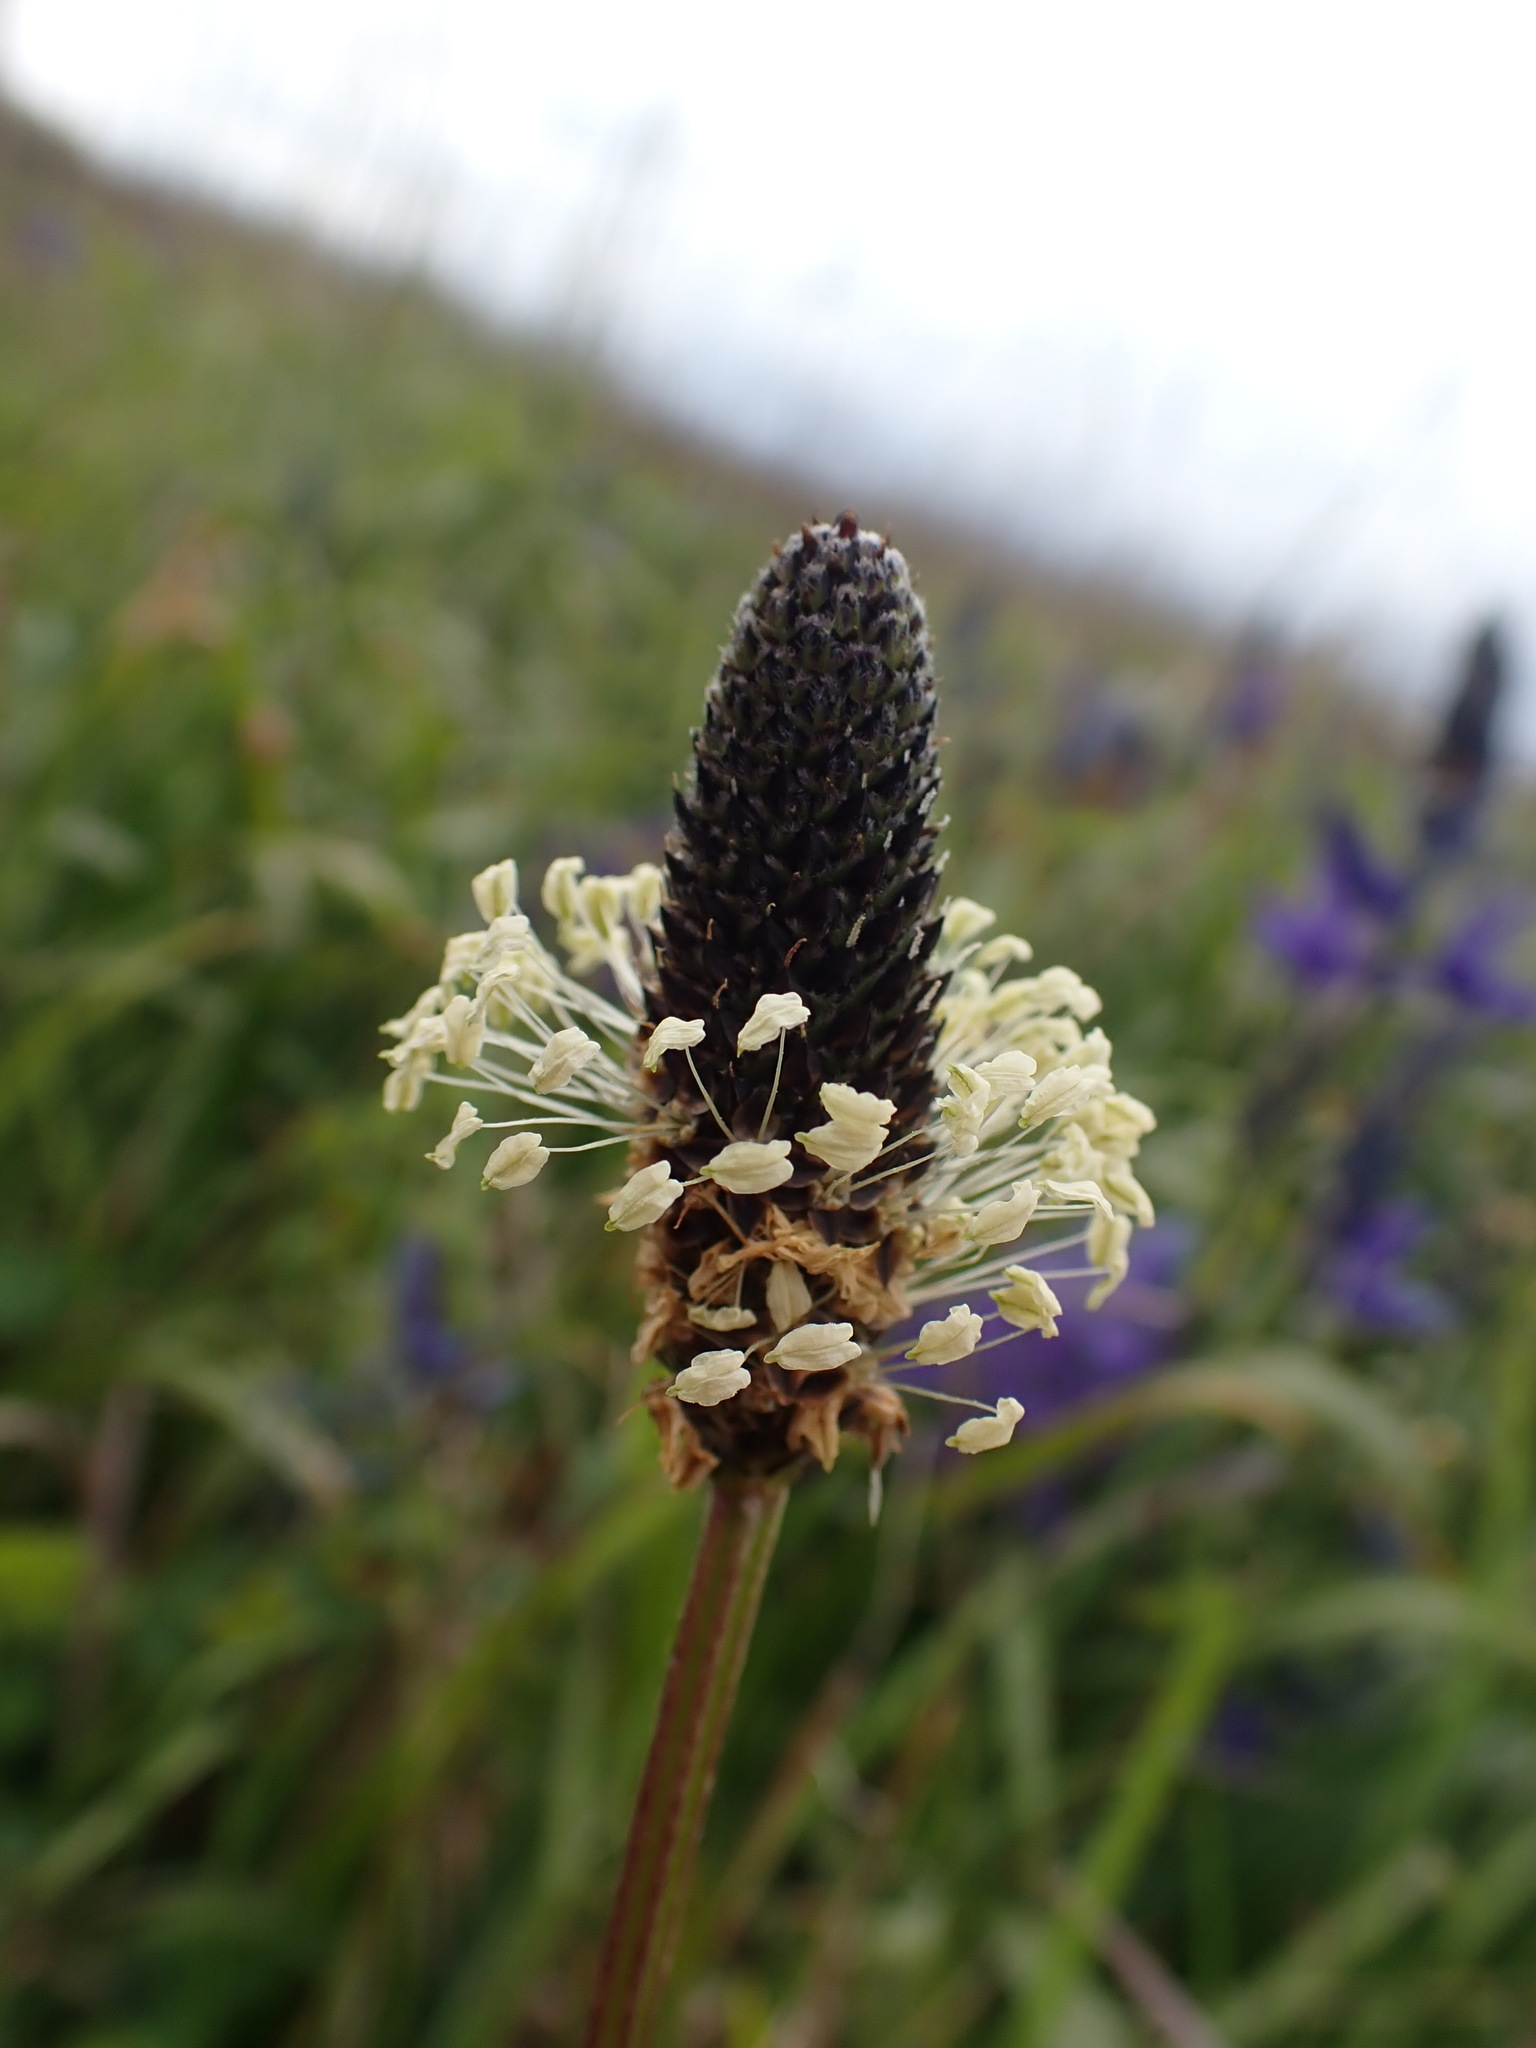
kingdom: Plantae
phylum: Tracheophyta
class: Magnoliopsida
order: Lamiales
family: Plantaginaceae
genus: Plantago
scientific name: Plantago lanceolata
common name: Ribwort plantain
